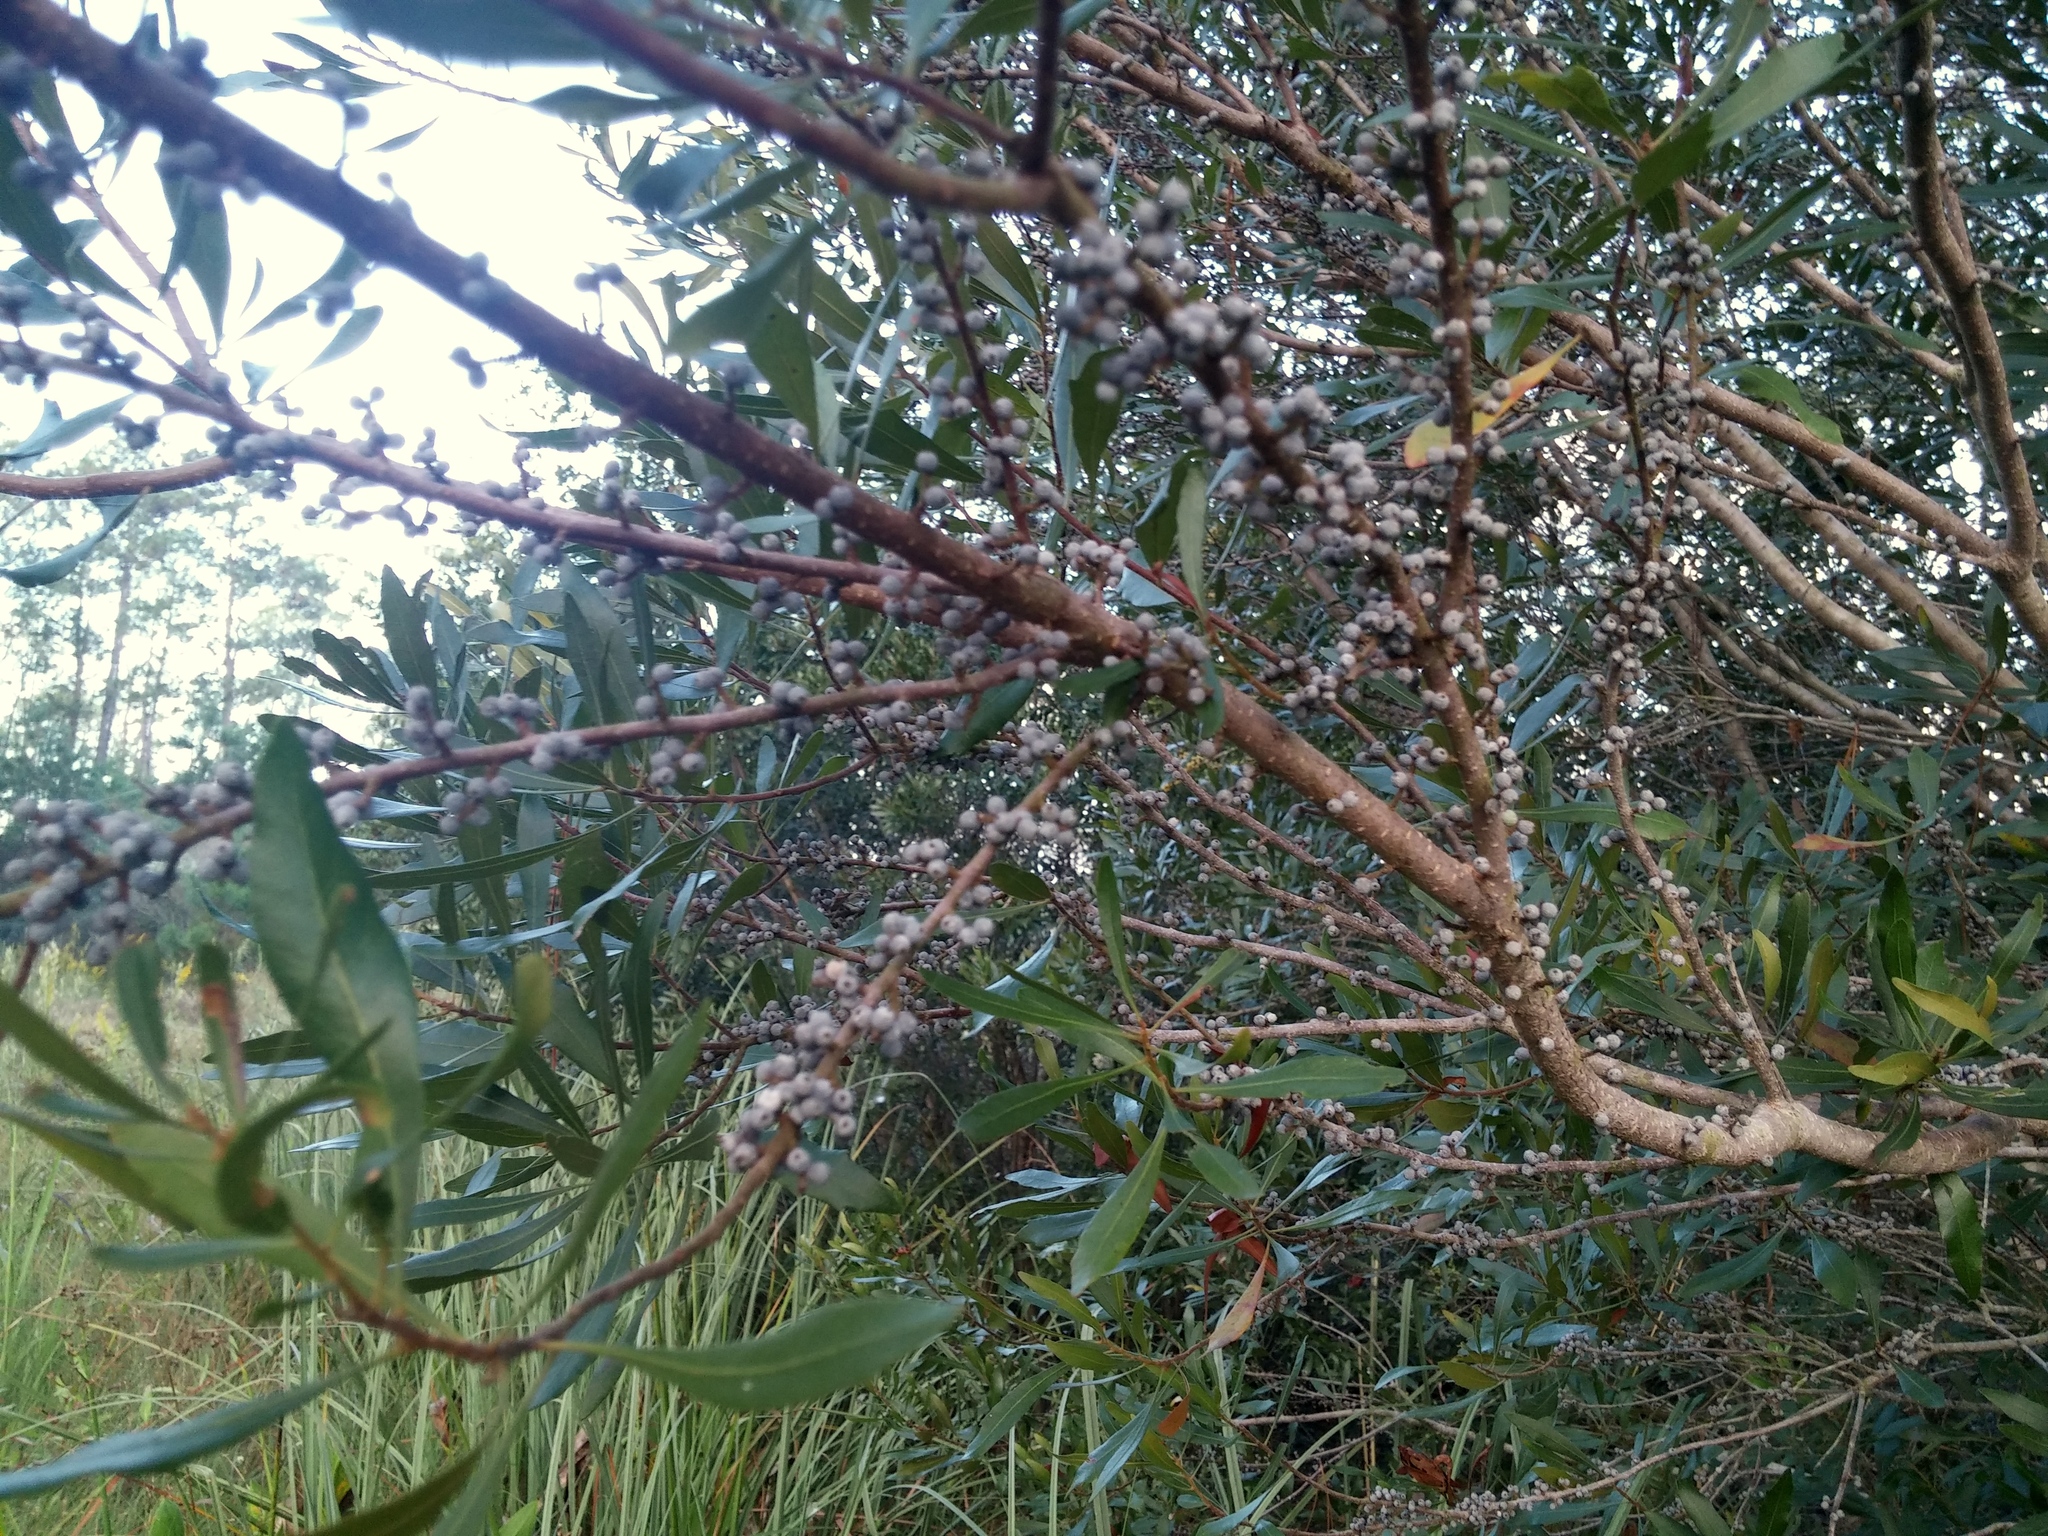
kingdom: Plantae
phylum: Tracheophyta
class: Magnoliopsida
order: Fagales
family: Myricaceae
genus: Morella
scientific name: Morella cerifera
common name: Wax myrtle
